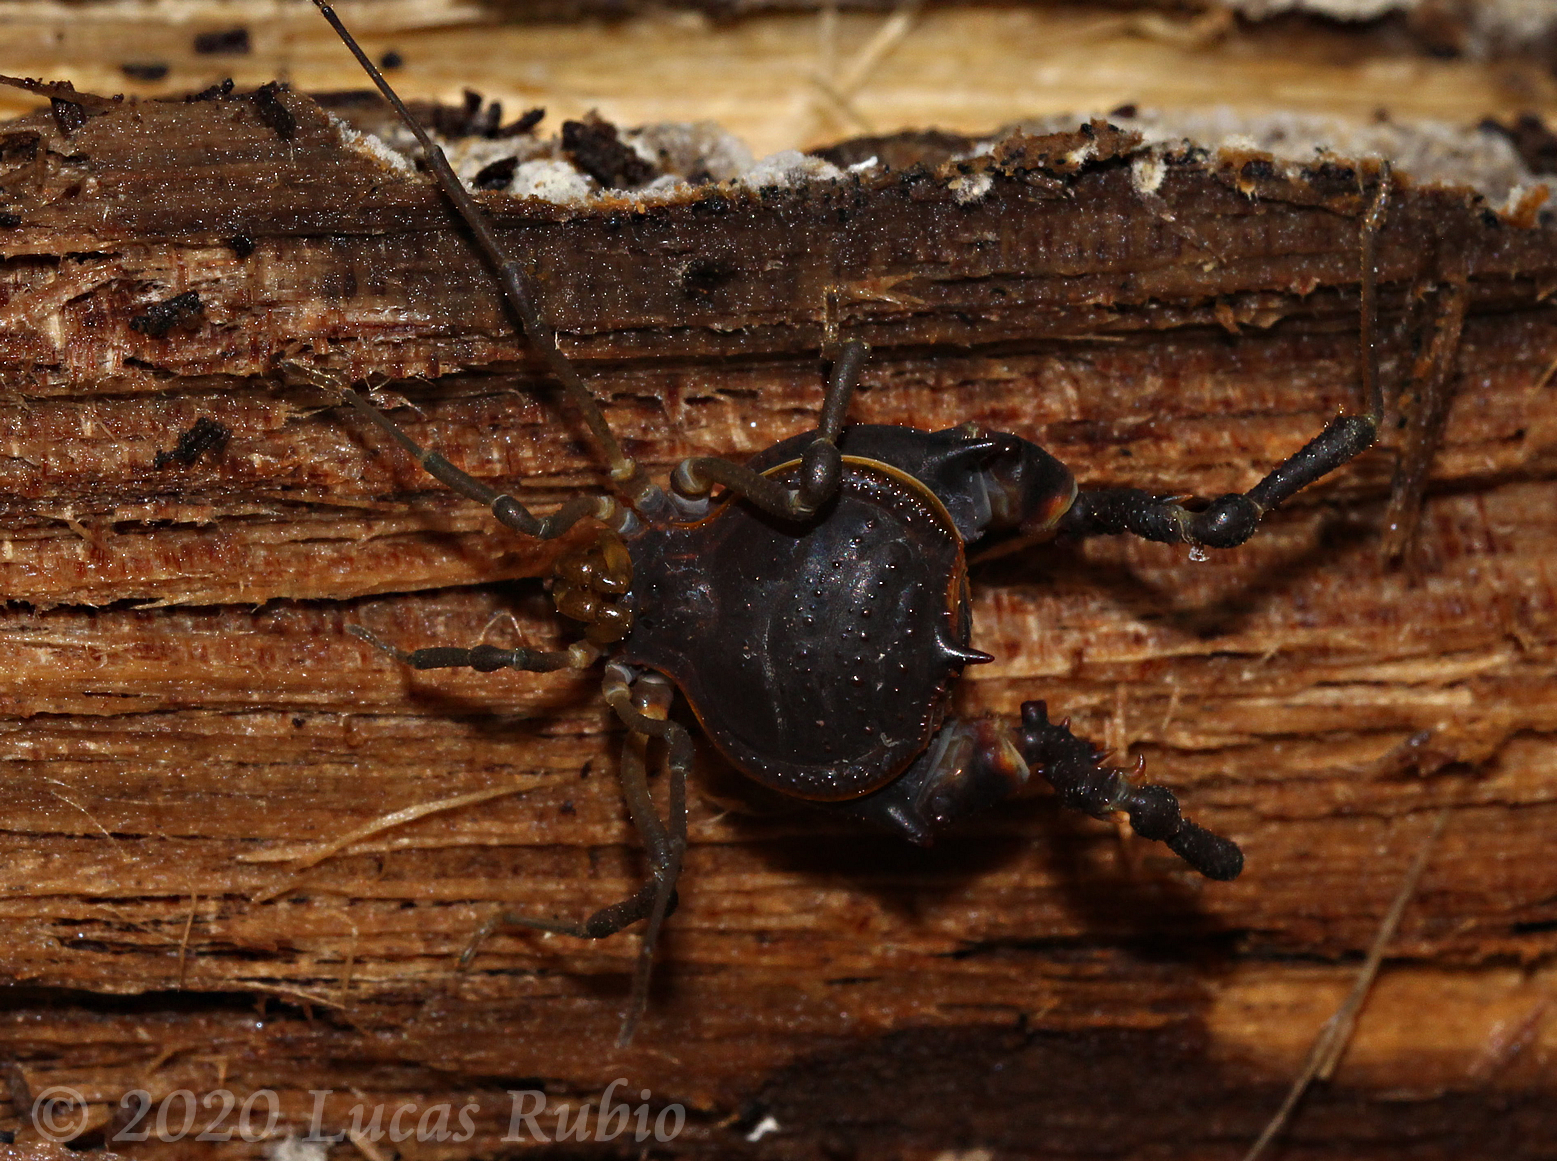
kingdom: Animalia
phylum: Arthropoda
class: Arachnida
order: Opiliones
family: Gonyleptidae
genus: Acanthopachylus
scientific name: Acanthopachylus robustus
